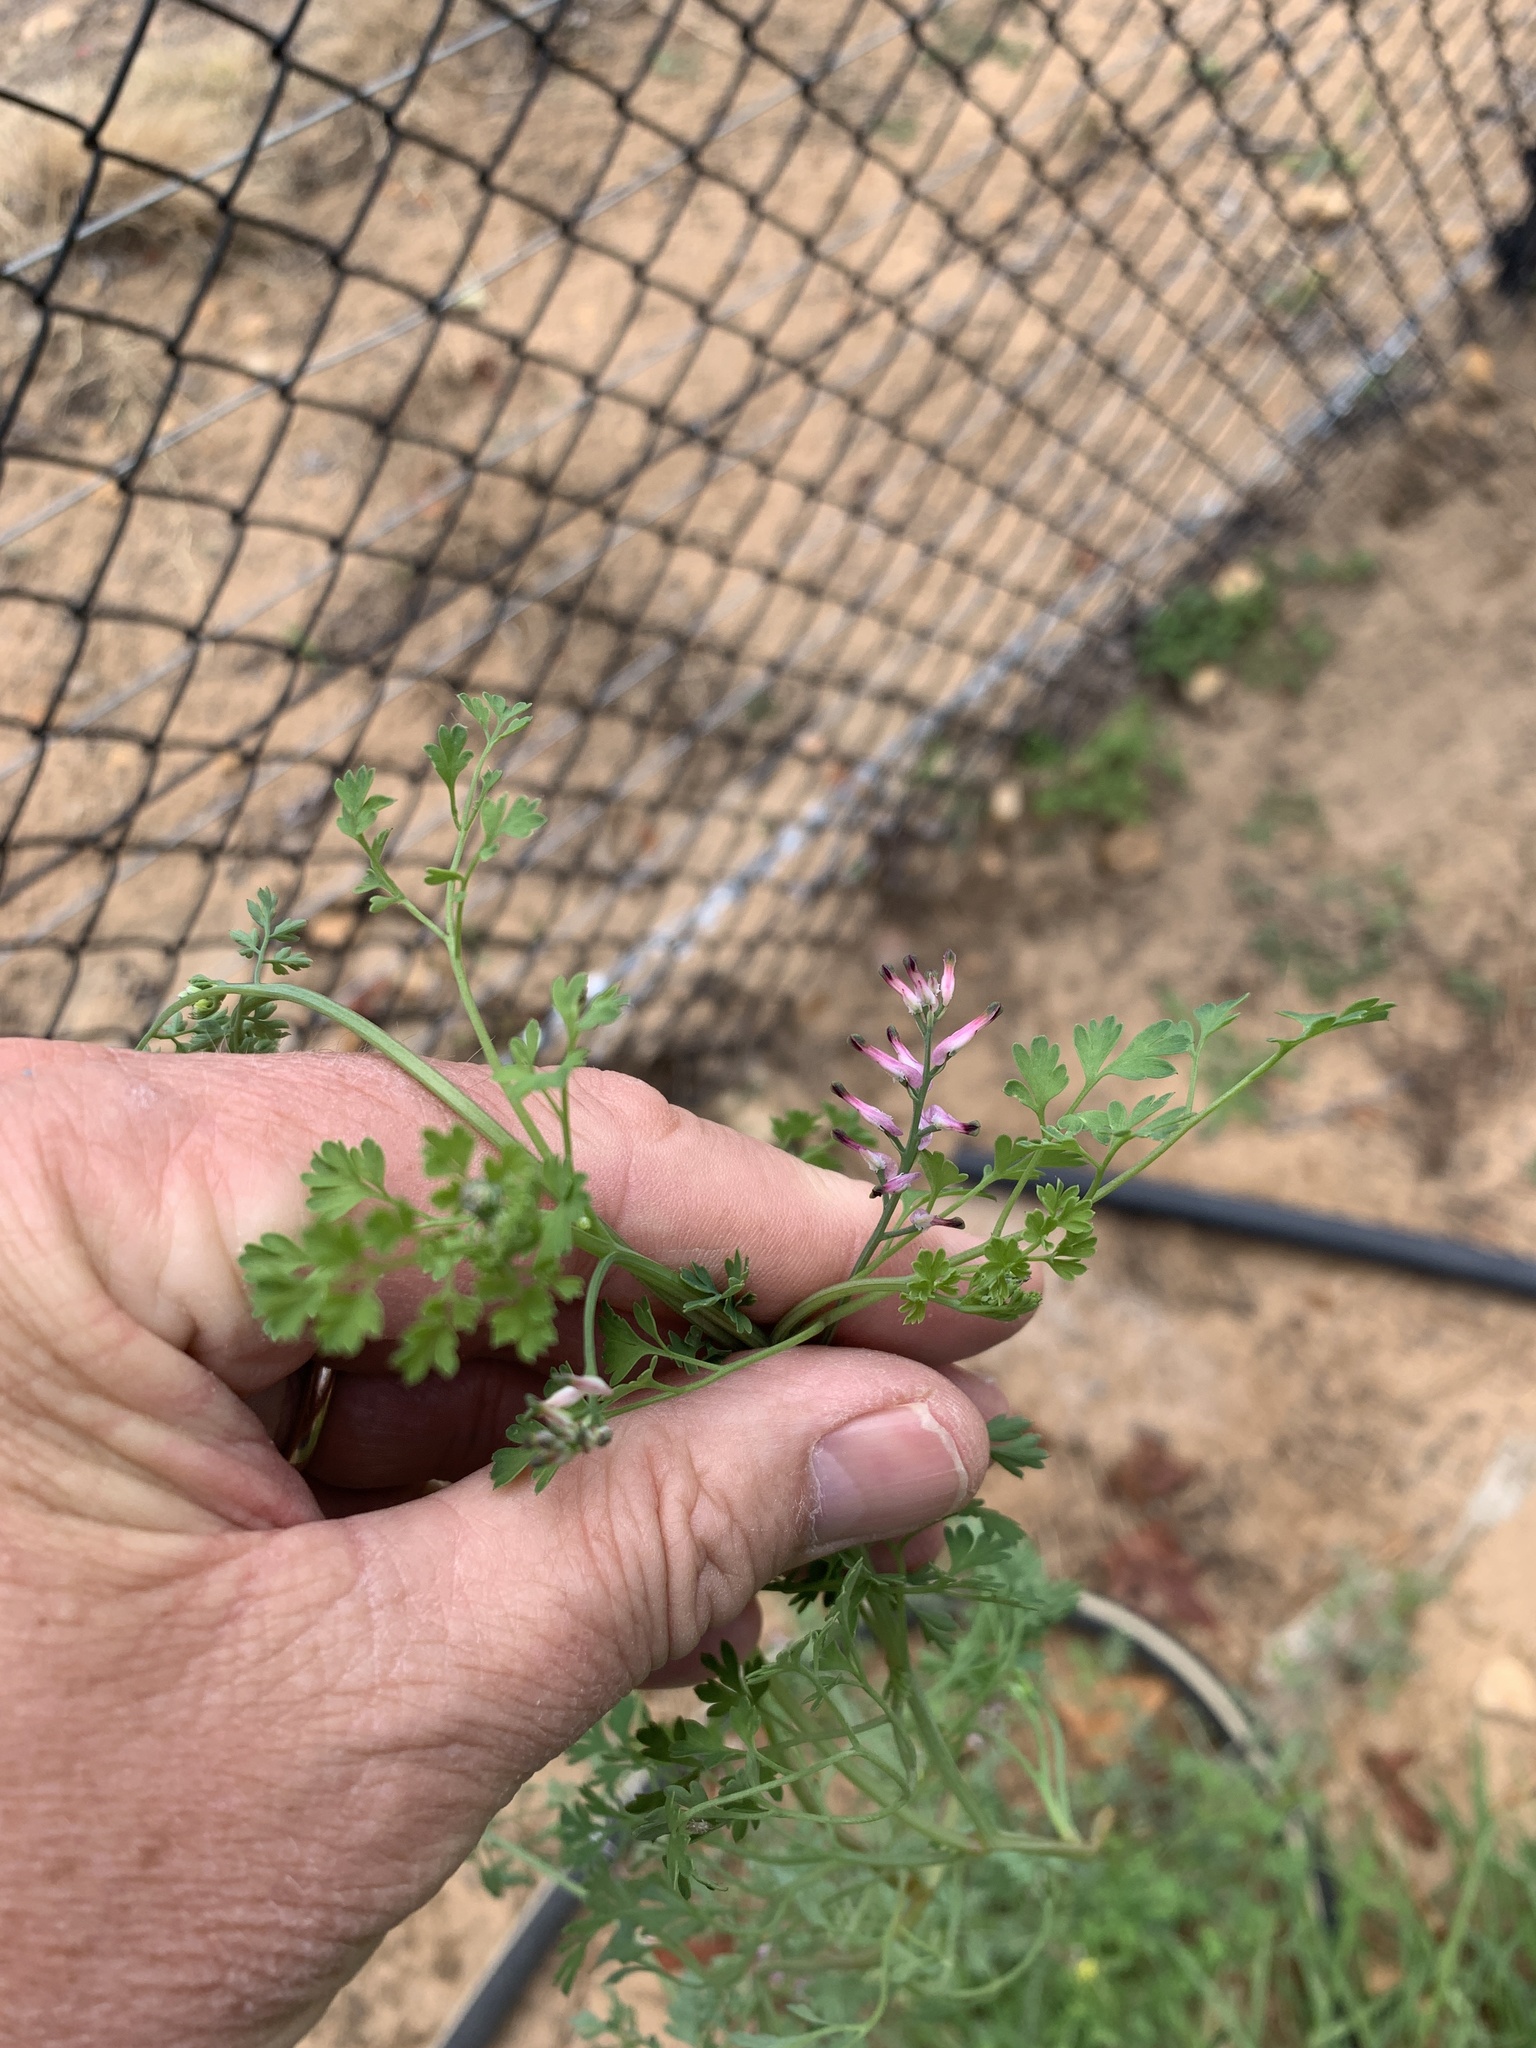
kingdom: Plantae
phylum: Tracheophyta
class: Magnoliopsida
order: Ranunculales
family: Papaveraceae
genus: Fumaria
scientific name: Fumaria muralis
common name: Common ramping-fumitory
